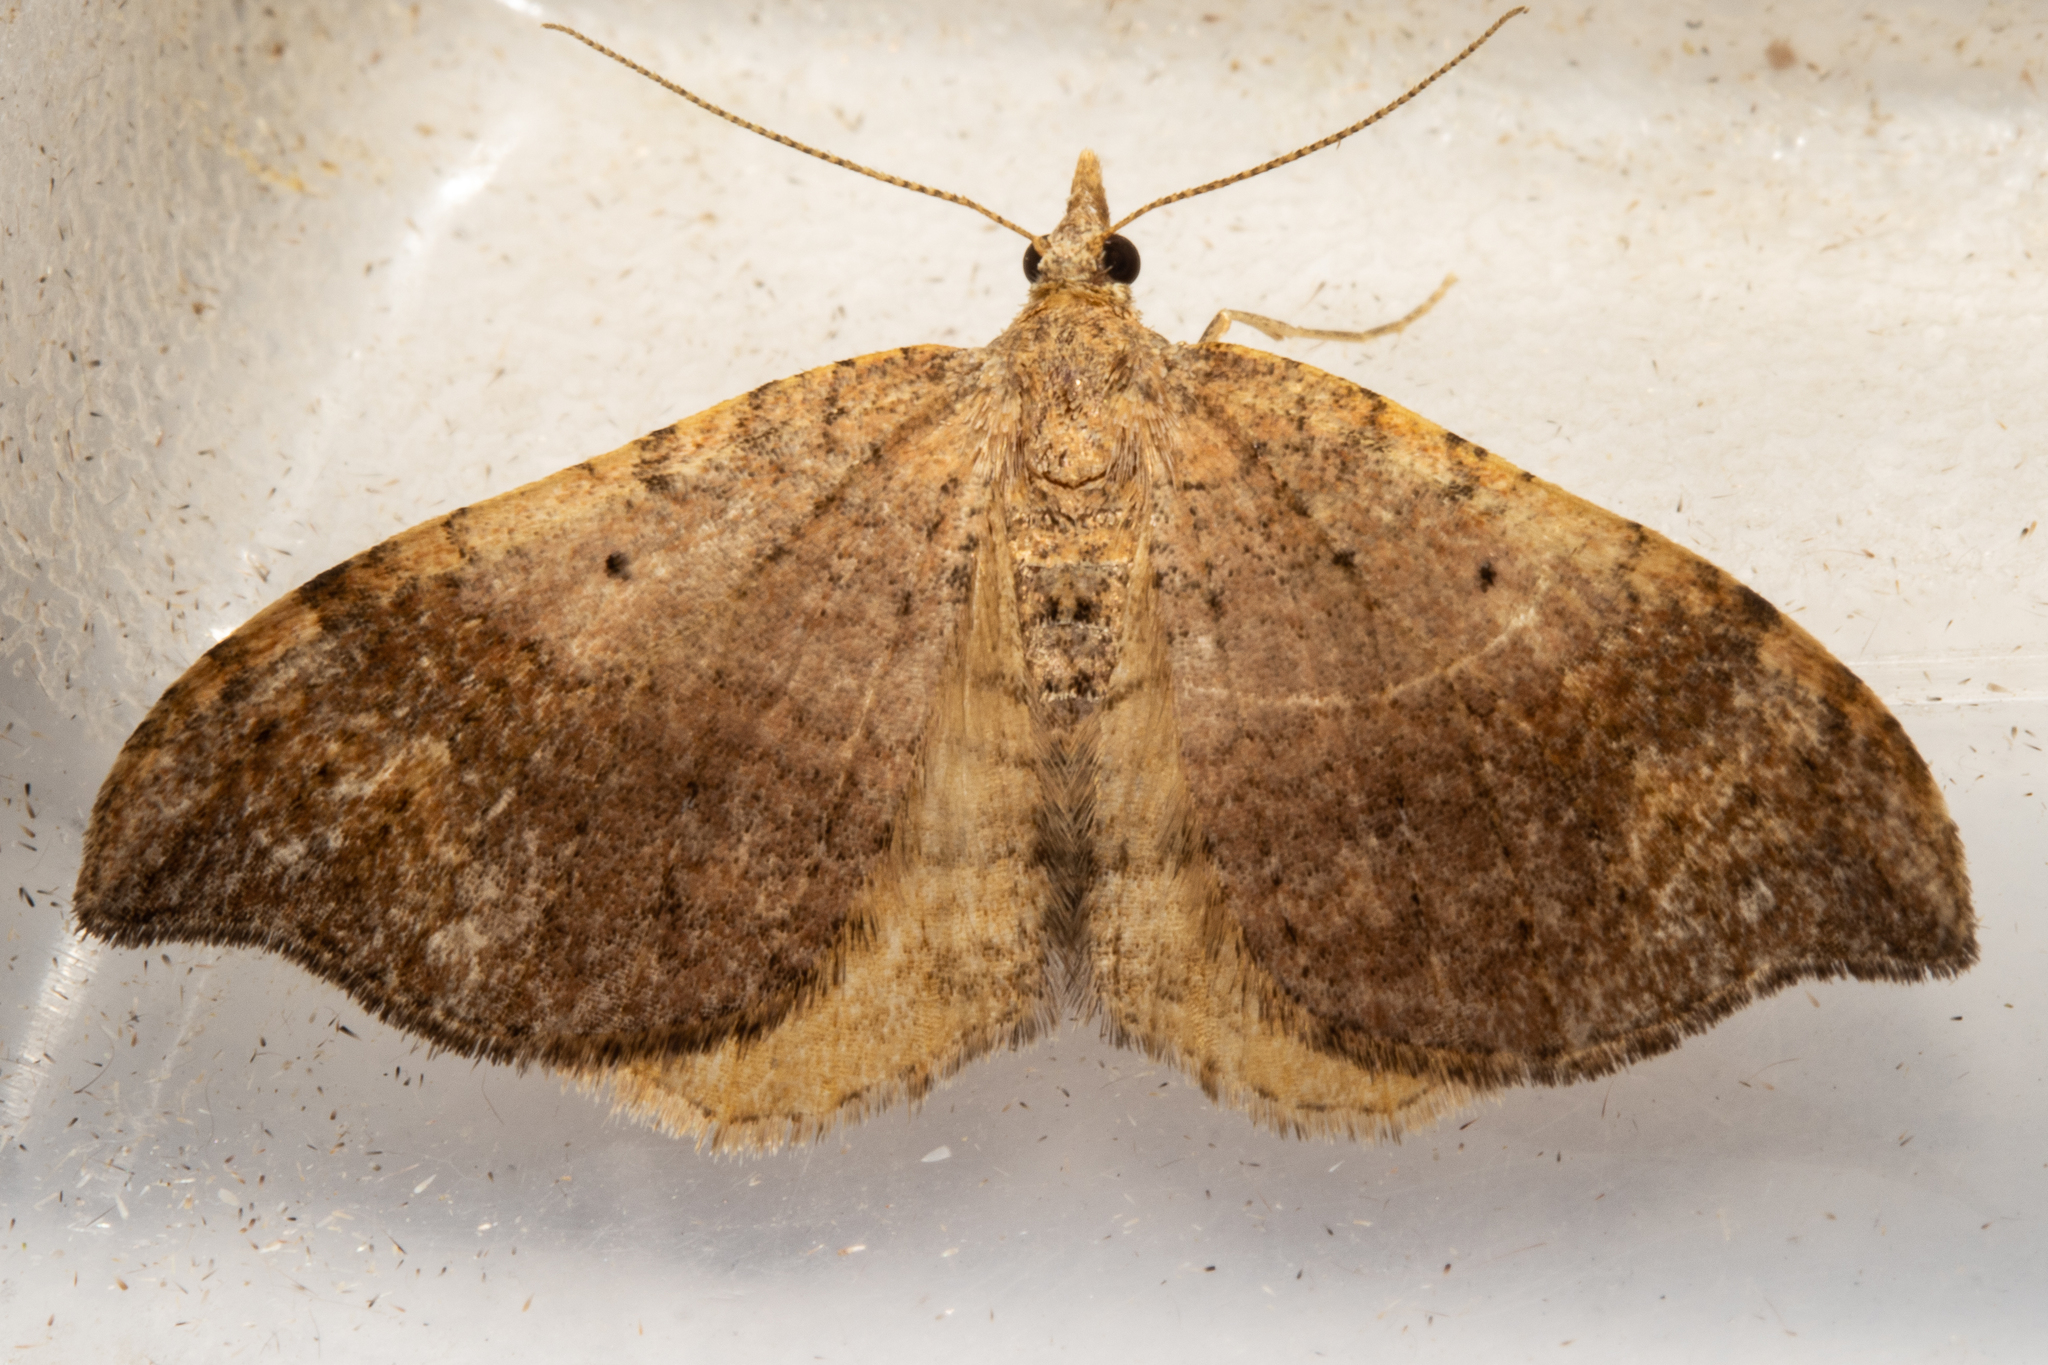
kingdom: Animalia
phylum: Arthropoda
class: Insecta
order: Lepidoptera
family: Geometridae
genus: Homodotis
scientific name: Homodotis megaspilata
